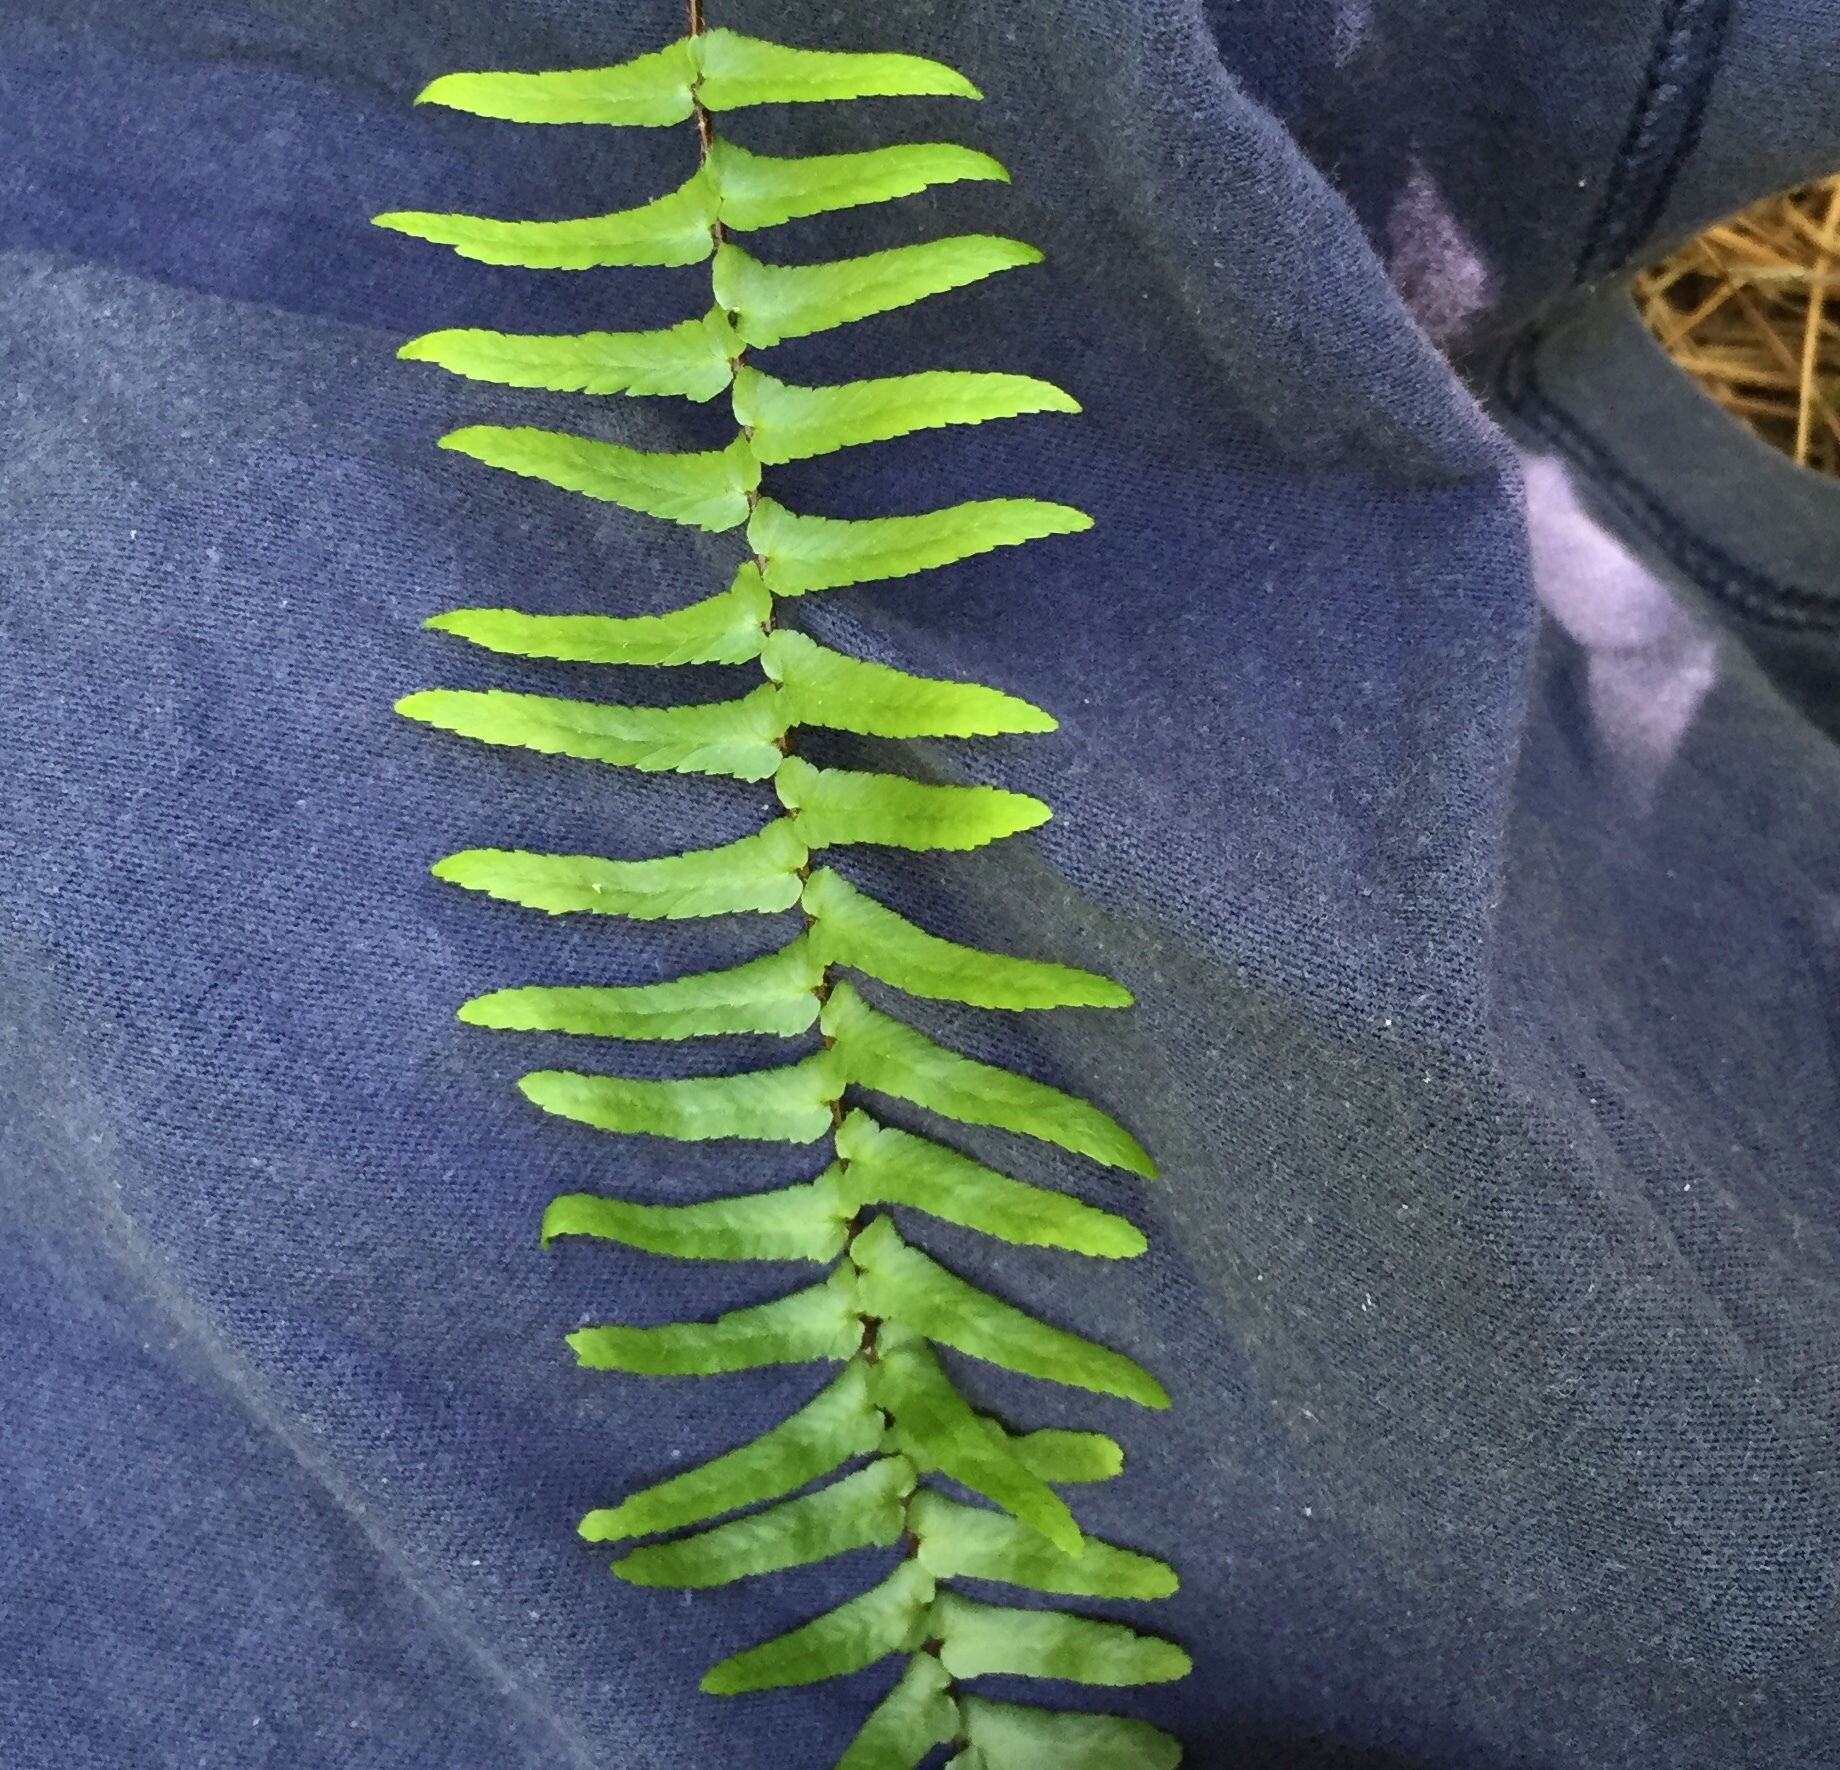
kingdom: Plantae
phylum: Tracheophyta
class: Polypodiopsida
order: Polypodiales
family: Aspleniaceae
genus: Asplenium
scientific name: Asplenium platyneuron
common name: Ebony spleenwort
